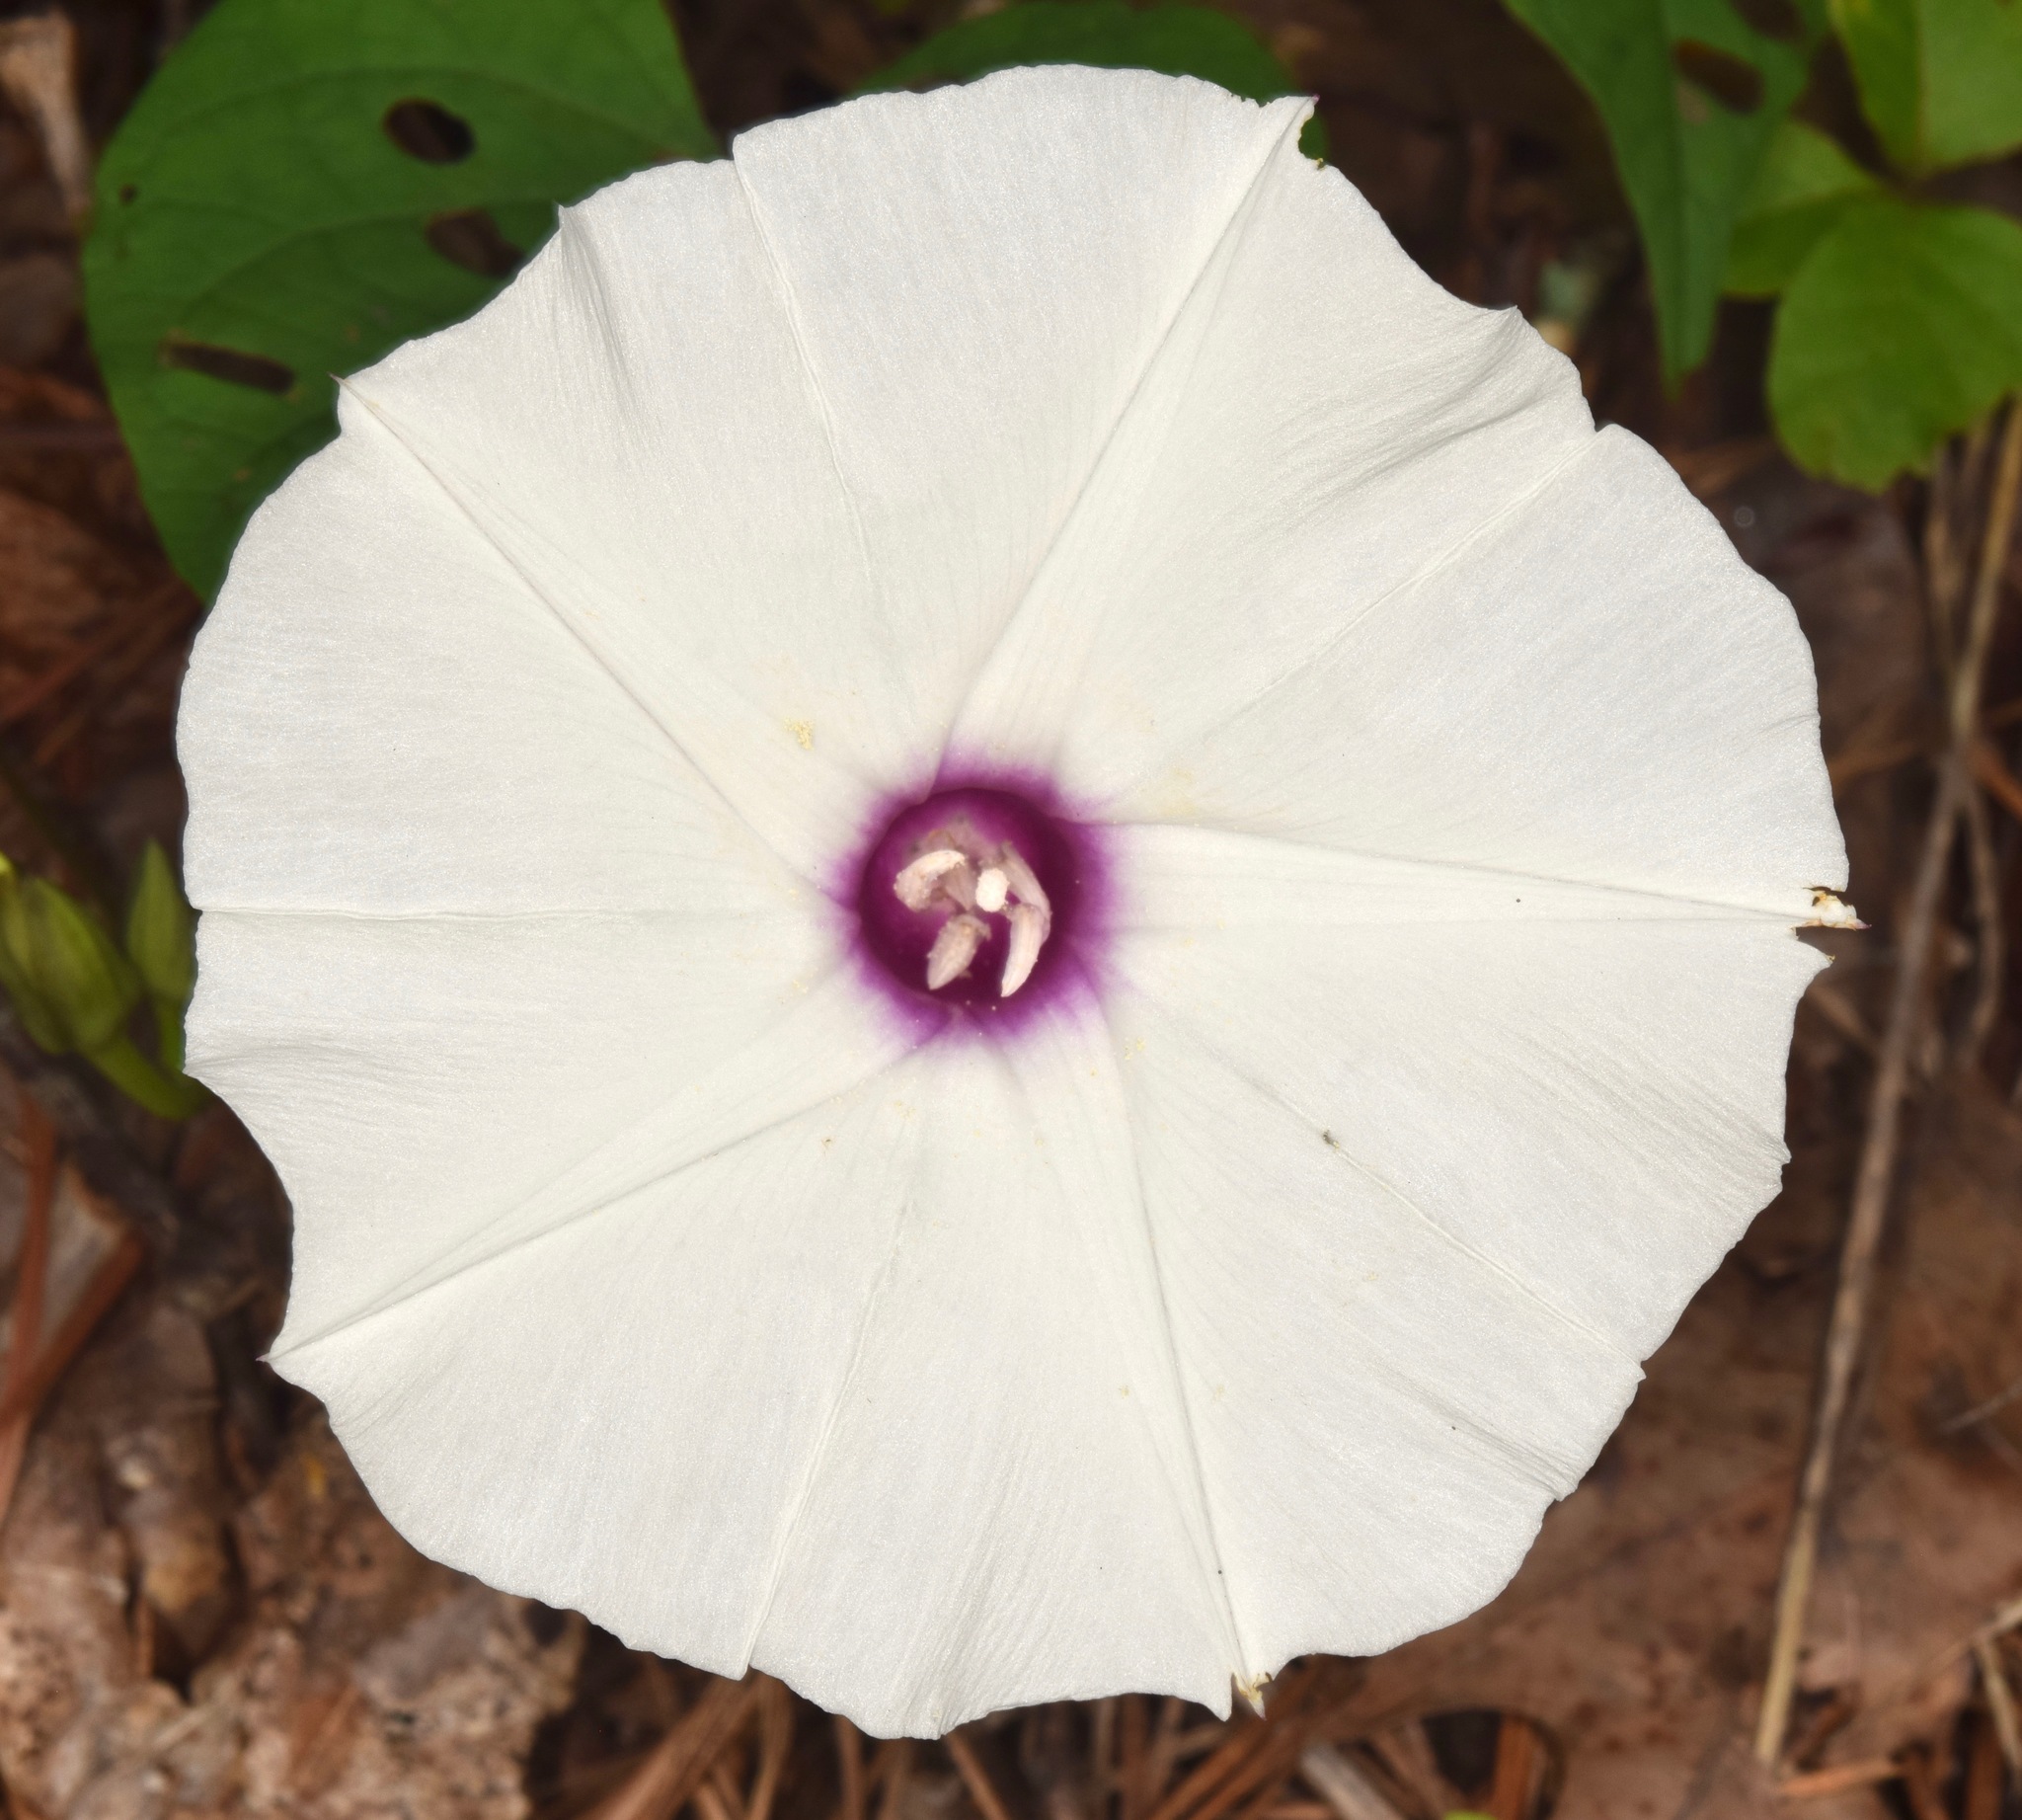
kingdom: Plantae
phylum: Tracheophyta
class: Magnoliopsida
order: Solanales
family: Convolvulaceae
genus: Ipomoea
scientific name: Ipomoea pandurata
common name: Man-of-the-earth
